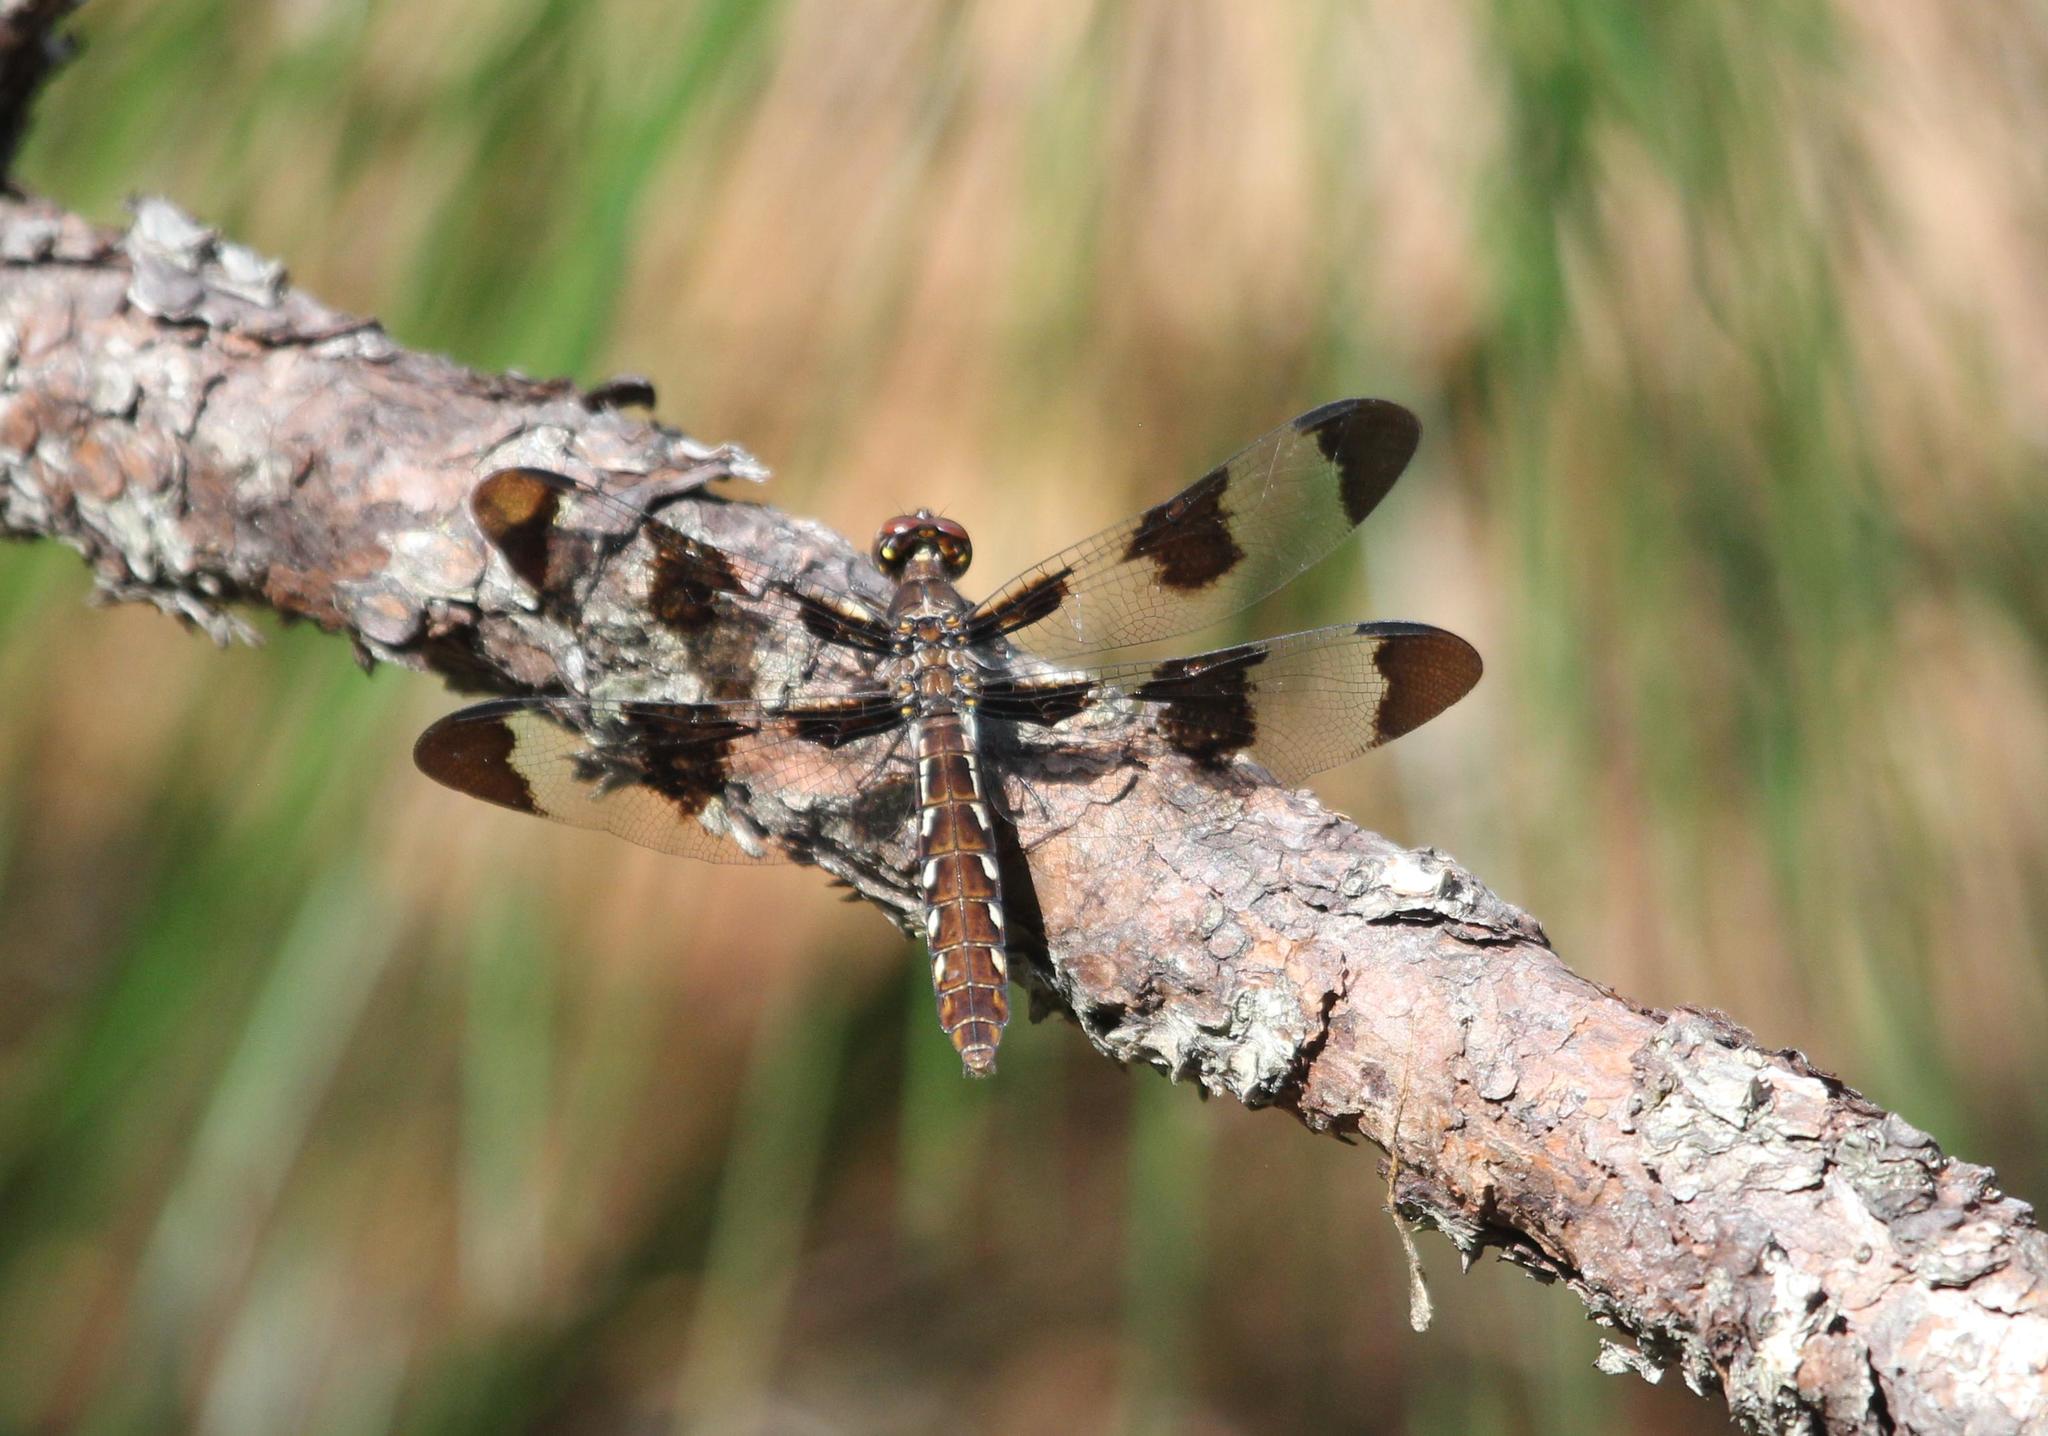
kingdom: Animalia
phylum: Arthropoda
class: Insecta
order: Odonata
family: Libellulidae
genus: Plathemis
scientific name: Plathemis lydia
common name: Common whitetail
